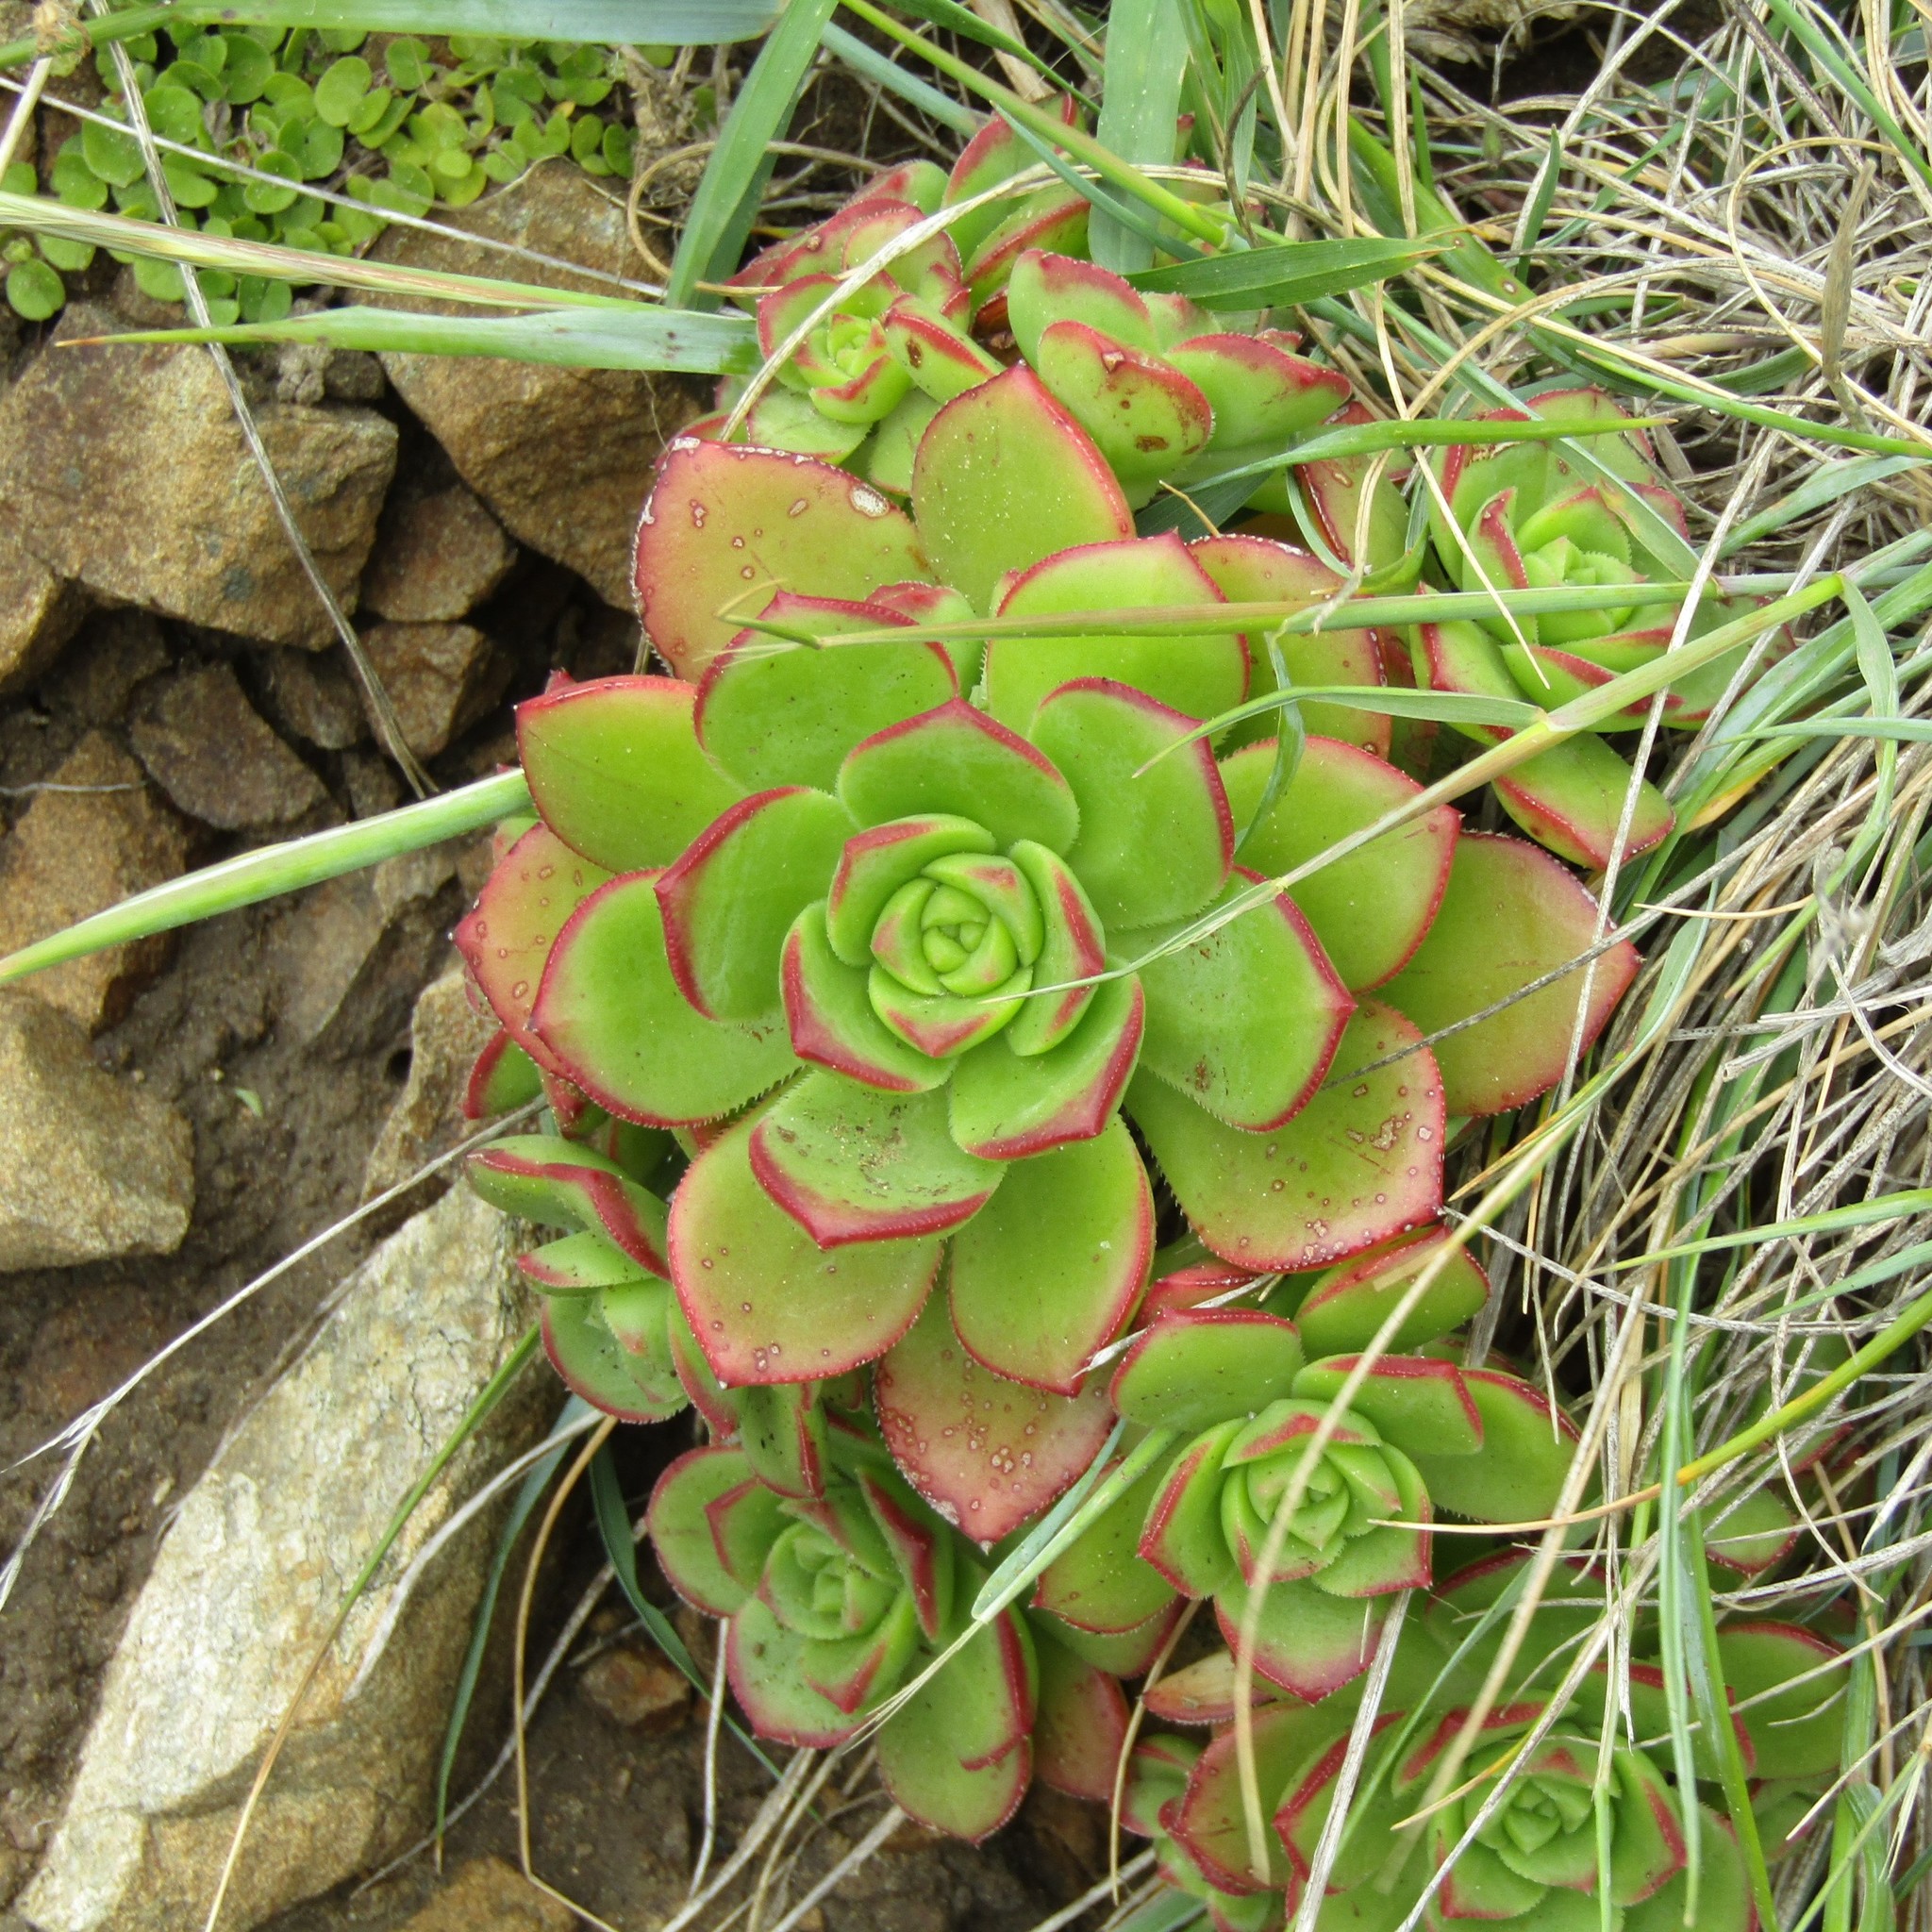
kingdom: Plantae
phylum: Tracheophyta
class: Magnoliopsida
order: Saxifragales
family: Crassulaceae
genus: Aeonium
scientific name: Aeonium haworthii
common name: Haworth's aeonium
